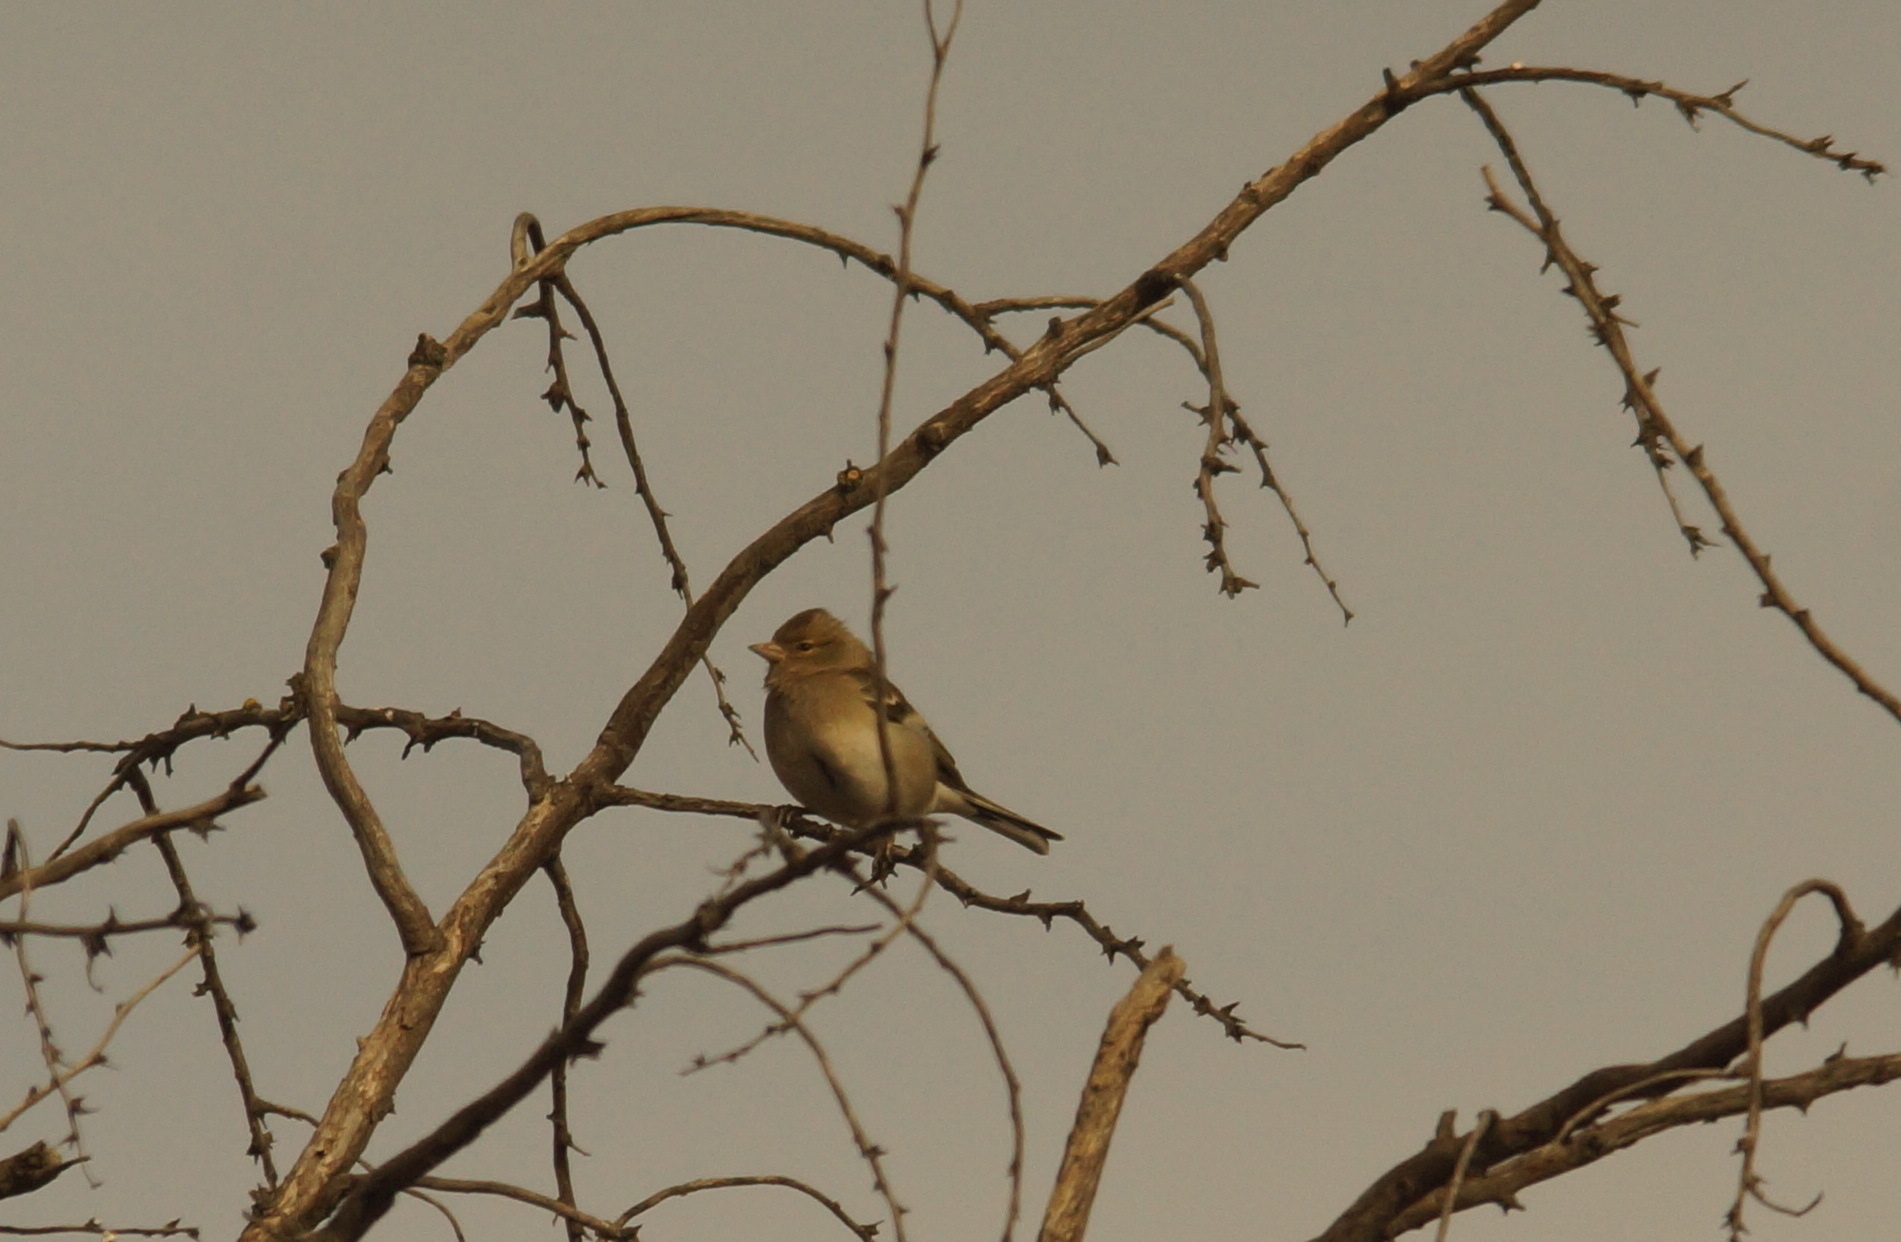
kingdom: Animalia
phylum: Chordata
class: Aves
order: Passeriformes
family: Fringillidae
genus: Fringilla
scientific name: Fringilla coelebs
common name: Common chaffinch
